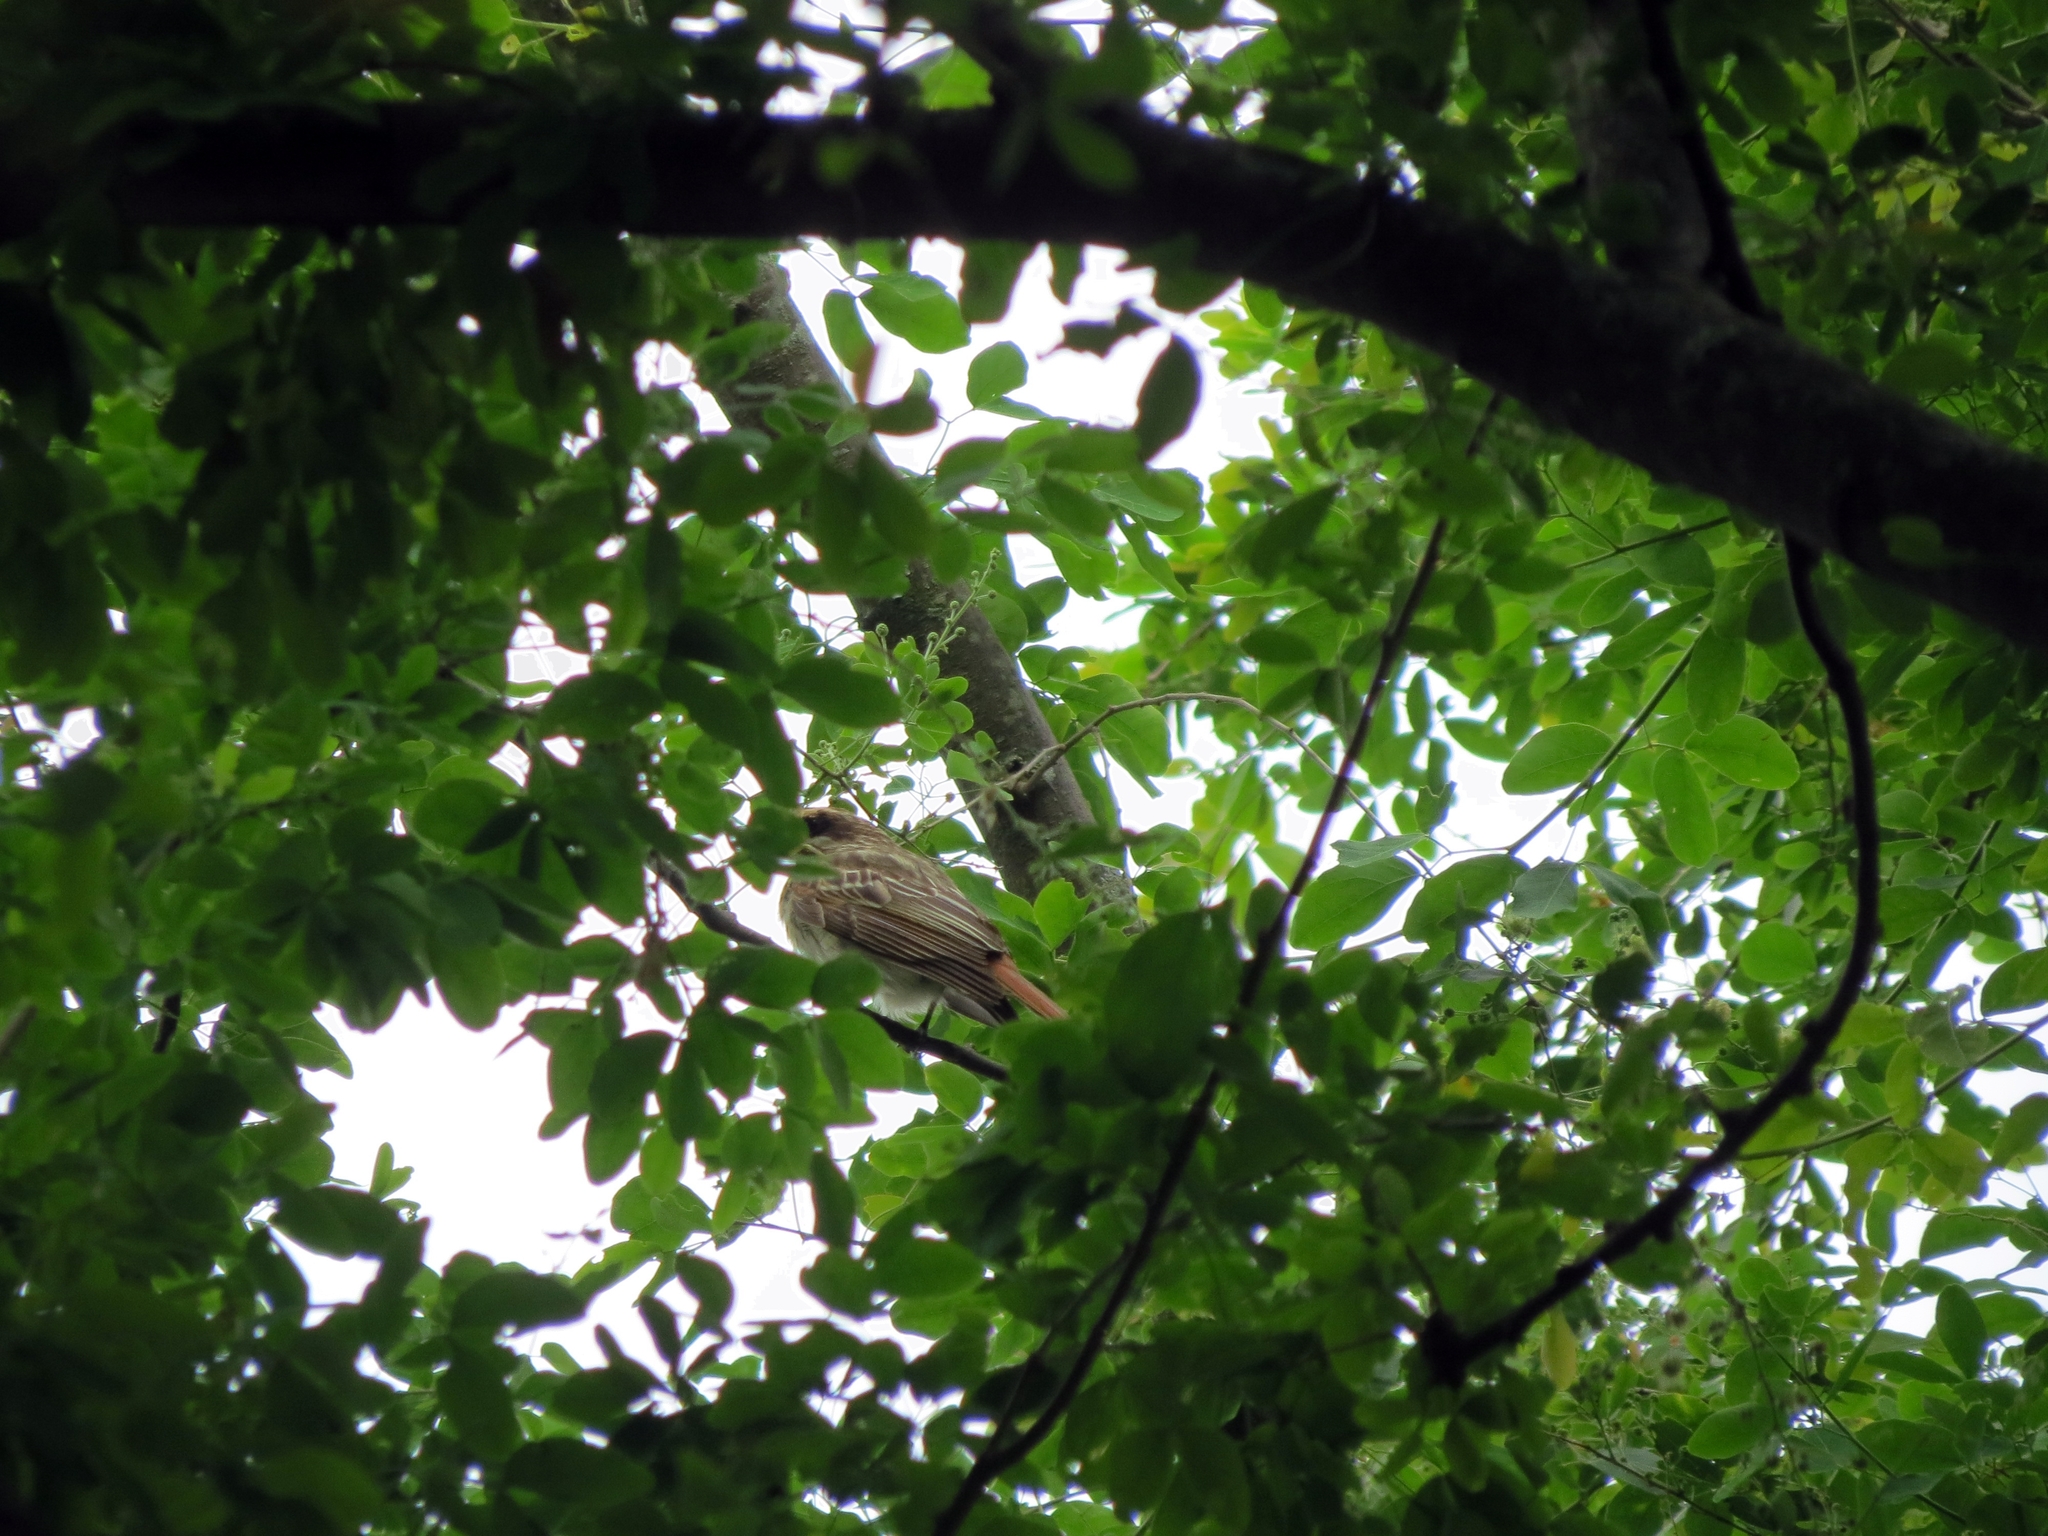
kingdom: Animalia
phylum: Chordata
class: Aves
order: Passeriformes
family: Tyrannidae
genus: Myiodynastes
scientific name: Myiodynastes maculatus
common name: Streaked flycatcher
